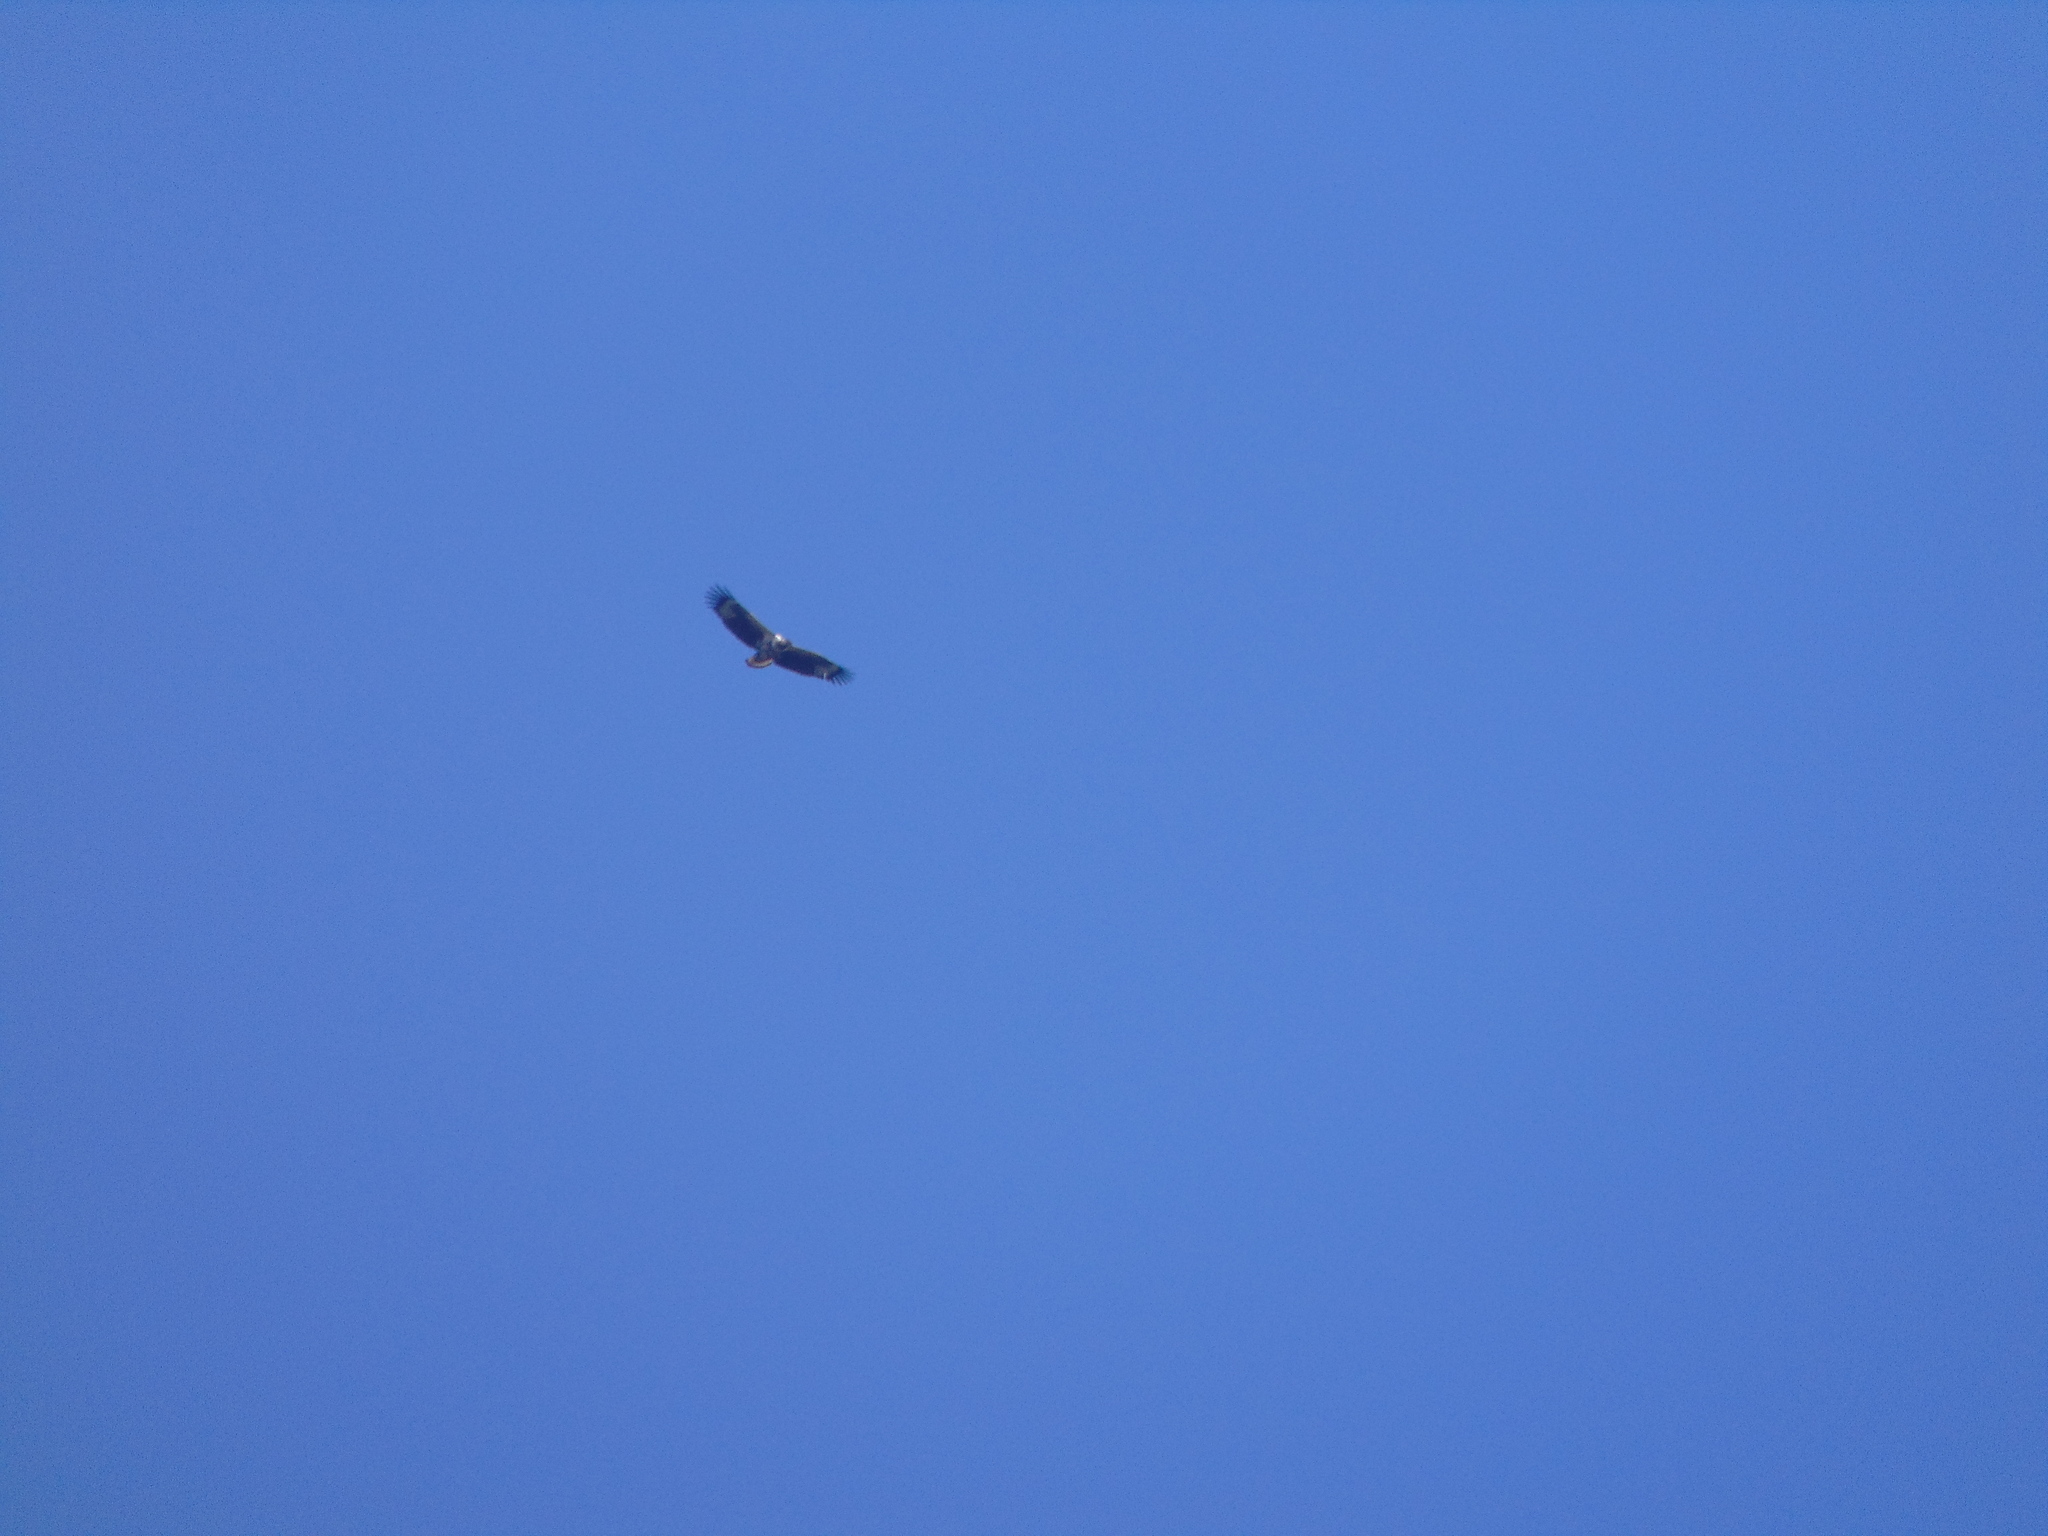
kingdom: Animalia
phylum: Chordata
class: Aves
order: Accipitriformes
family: Accipitridae
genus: Haliaeetus
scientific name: Haliaeetus vocifer
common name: African fish eagle
